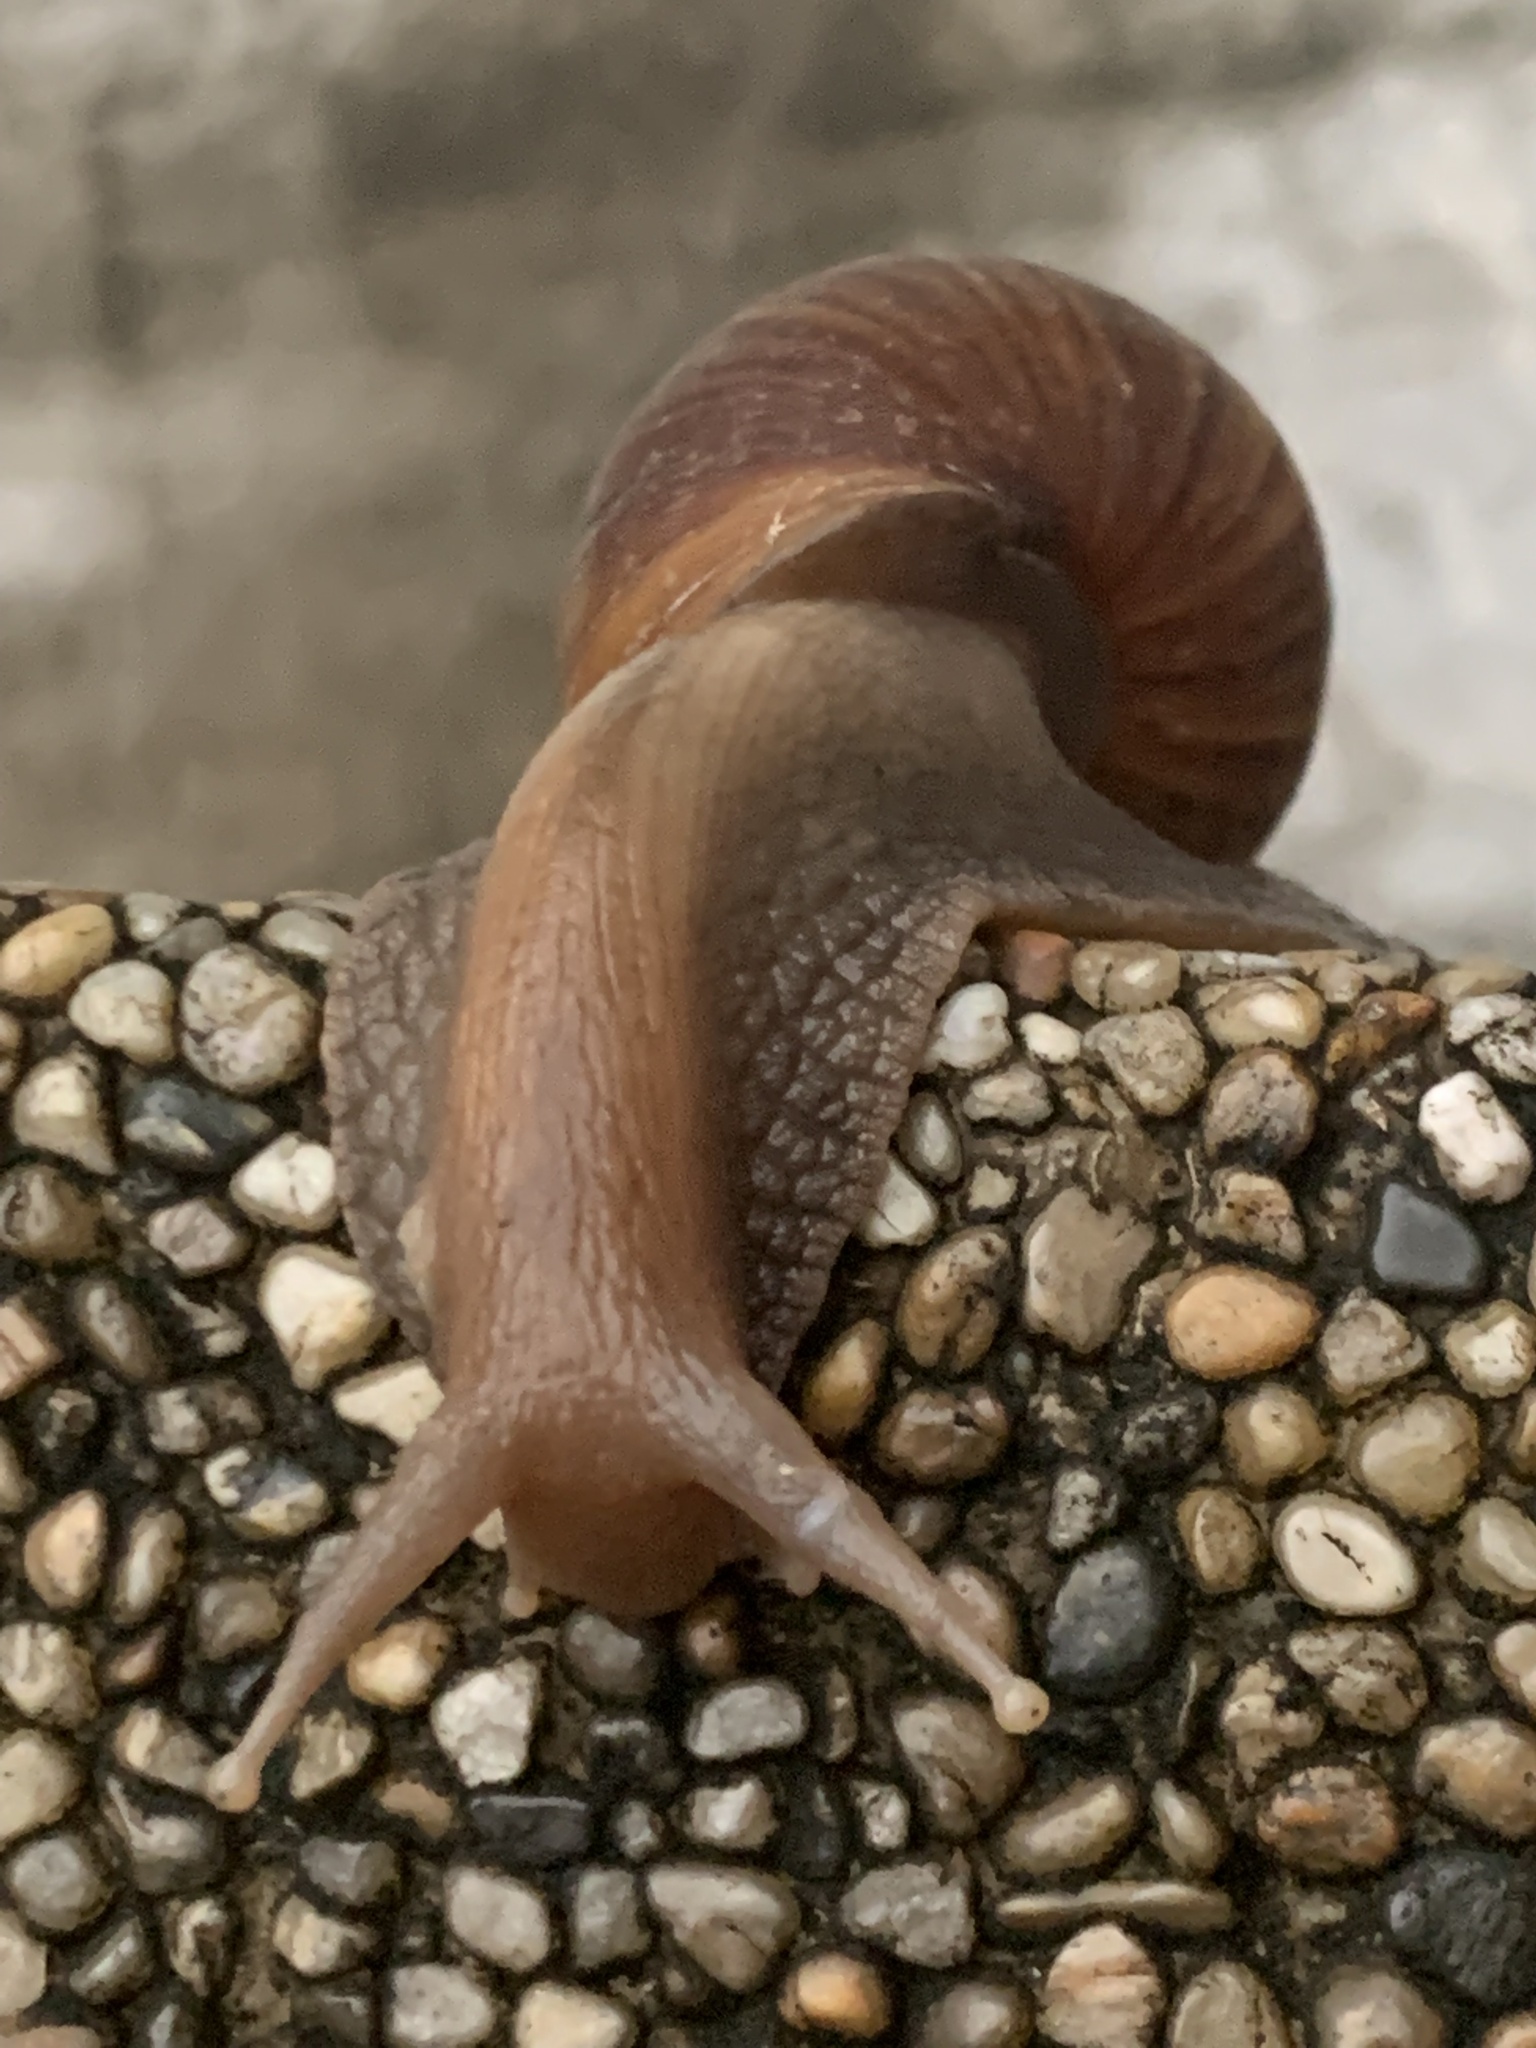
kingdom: Animalia
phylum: Mollusca
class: Gastropoda
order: Stylommatophora
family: Achatinidae
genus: Lissachatina
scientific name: Lissachatina fulica
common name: Giant african snail
